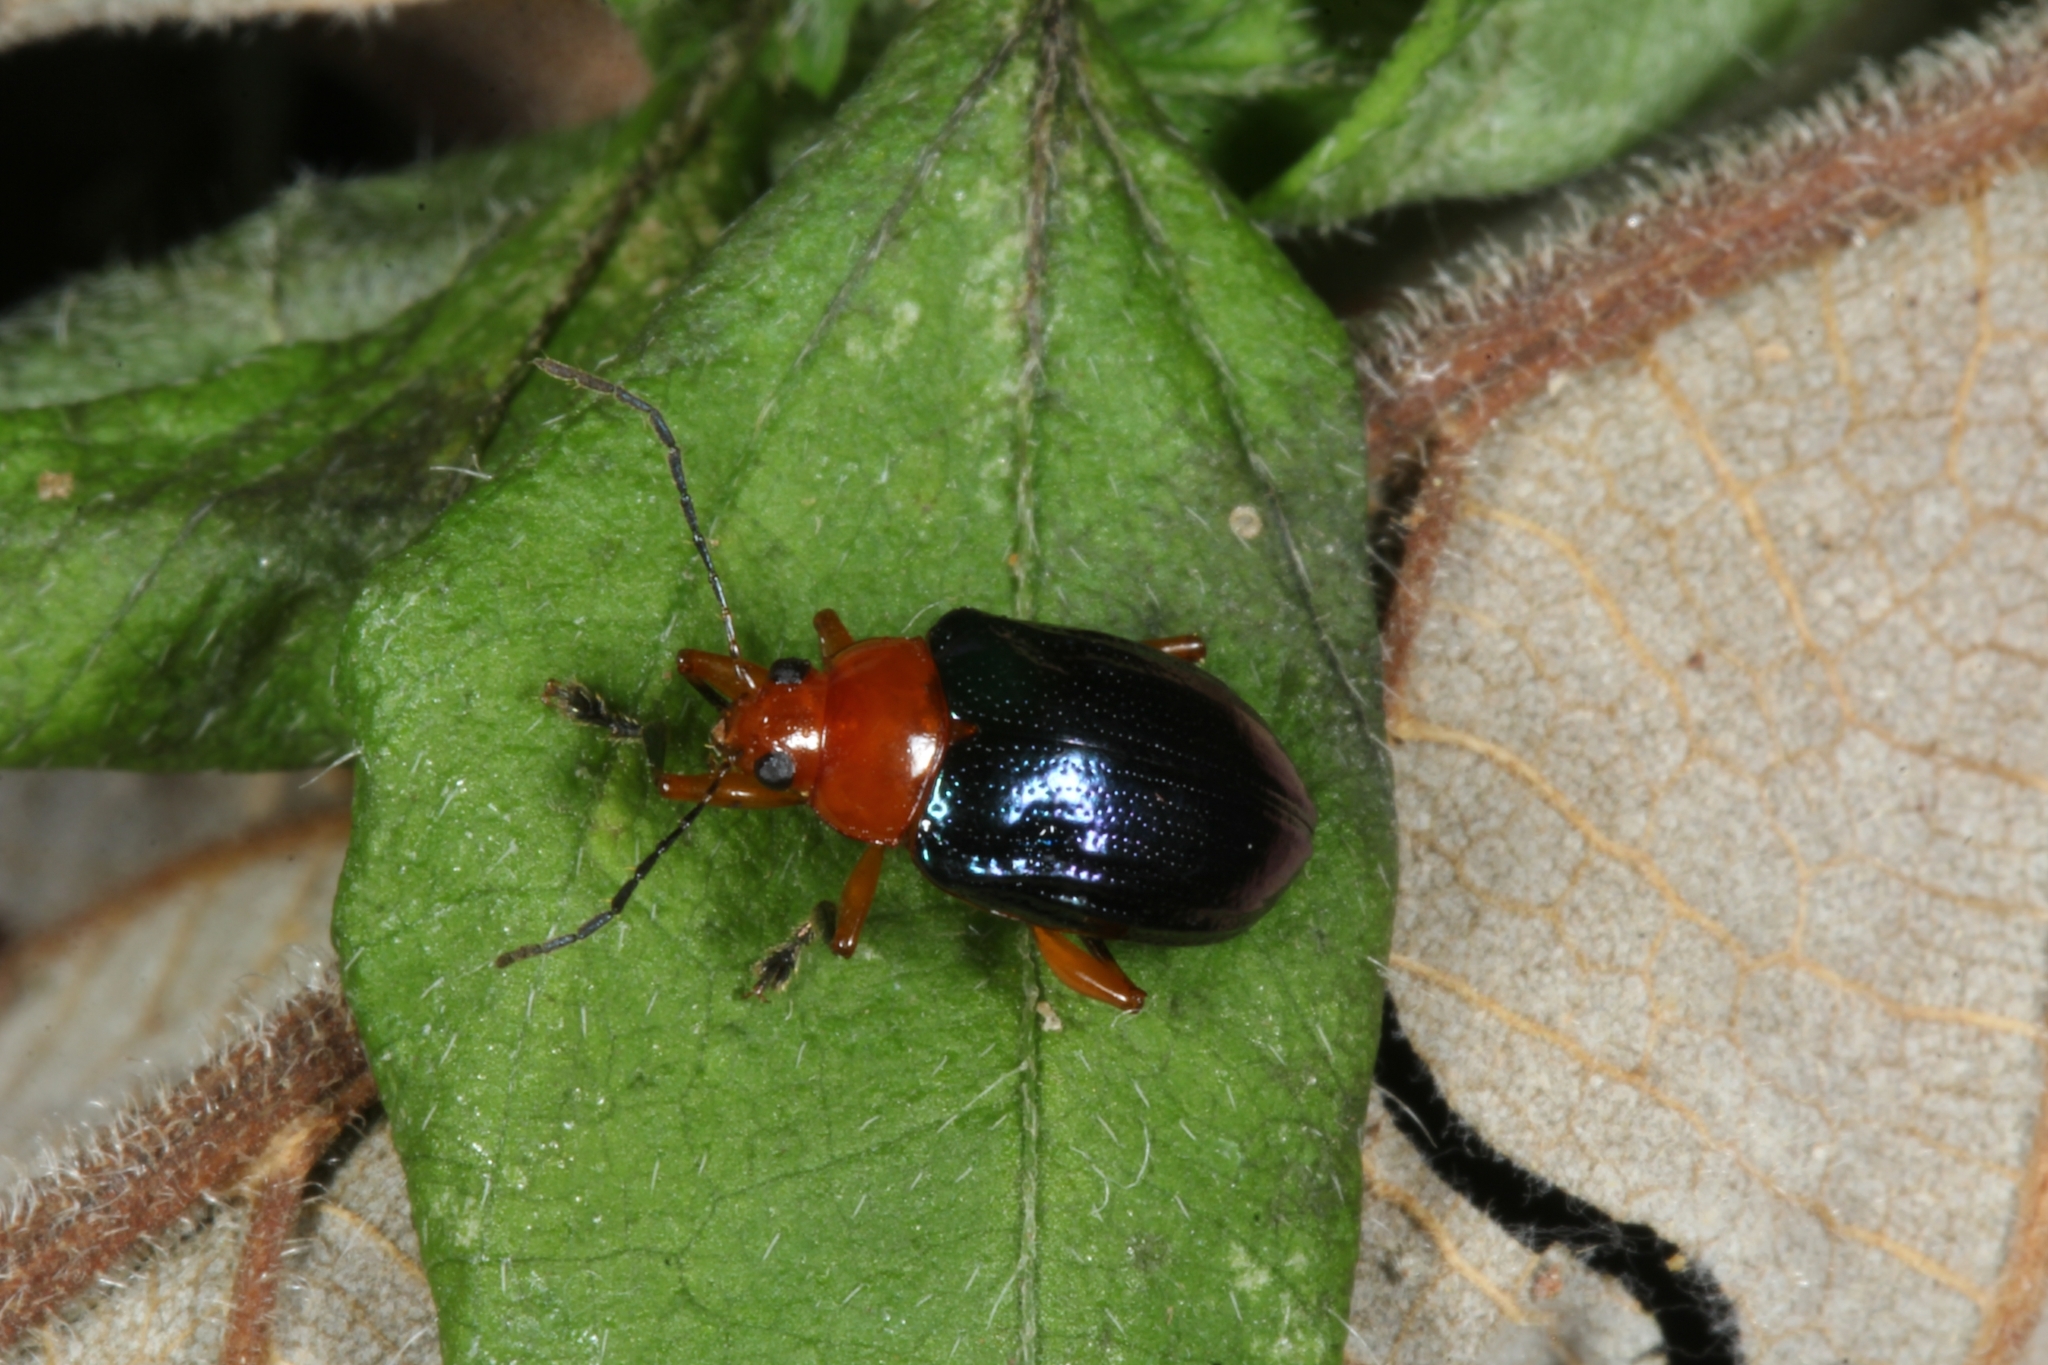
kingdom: Animalia
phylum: Arthropoda
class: Insecta
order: Coleoptera
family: Chrysomelidae
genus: Chalcophana
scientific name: Chalcophana
